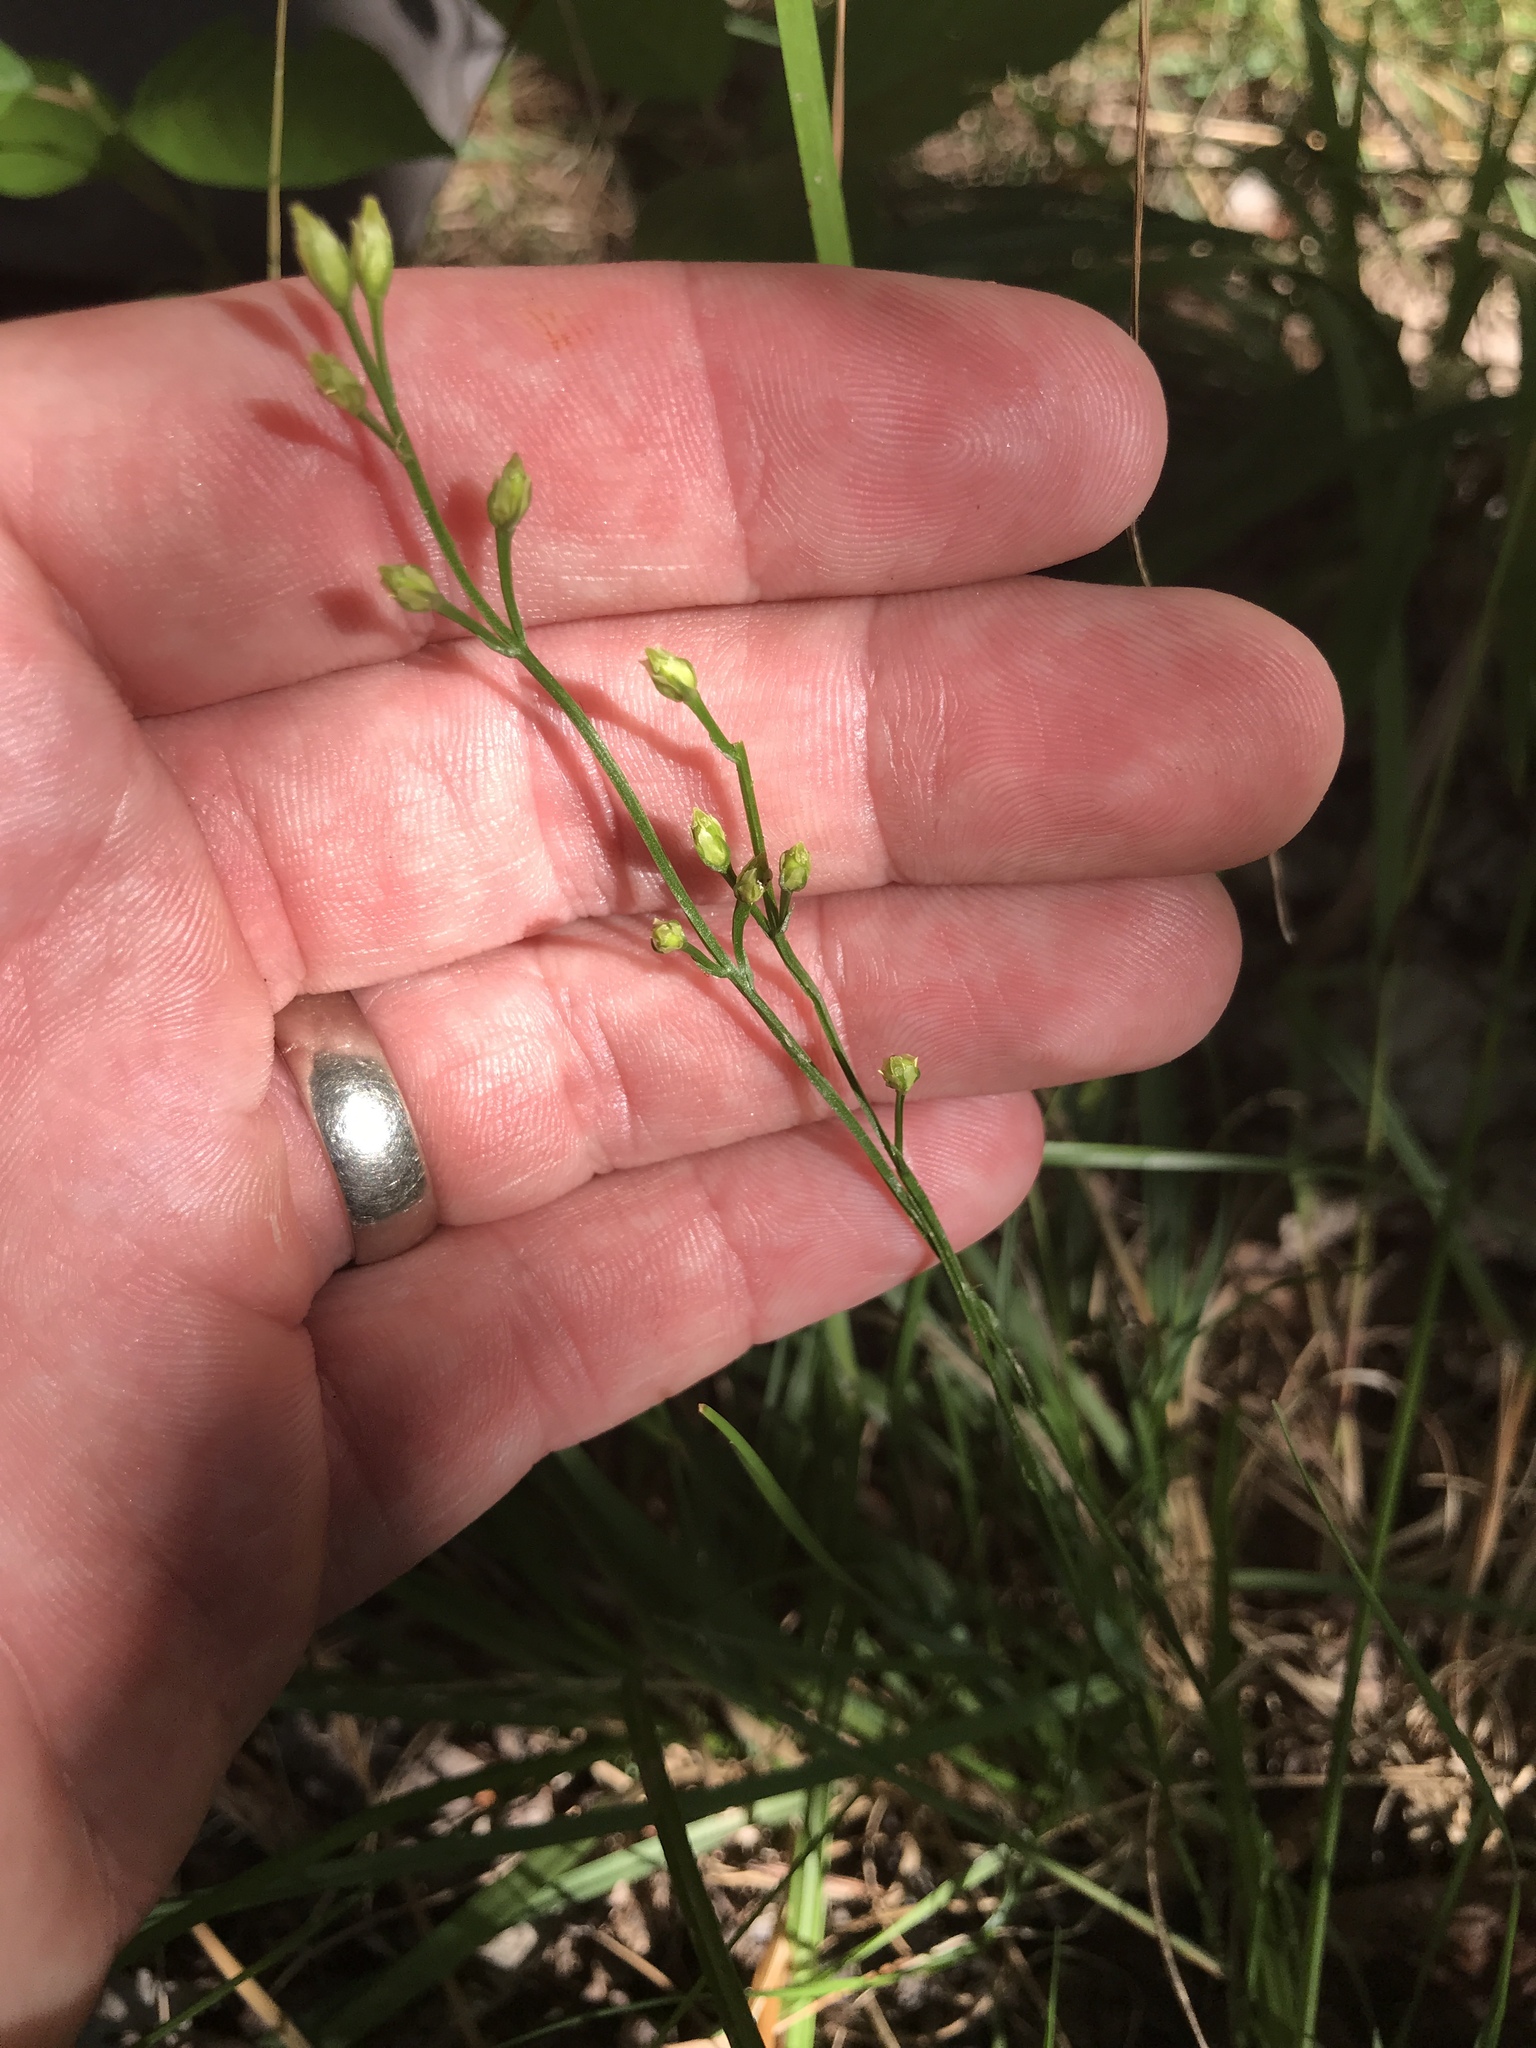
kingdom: Plantae
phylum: Tracheophyta
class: Magnoliopsida
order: Gentianales
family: Gentianaceae
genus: Bartonia
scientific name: Bartonia virginica
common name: Yellow bartonia
